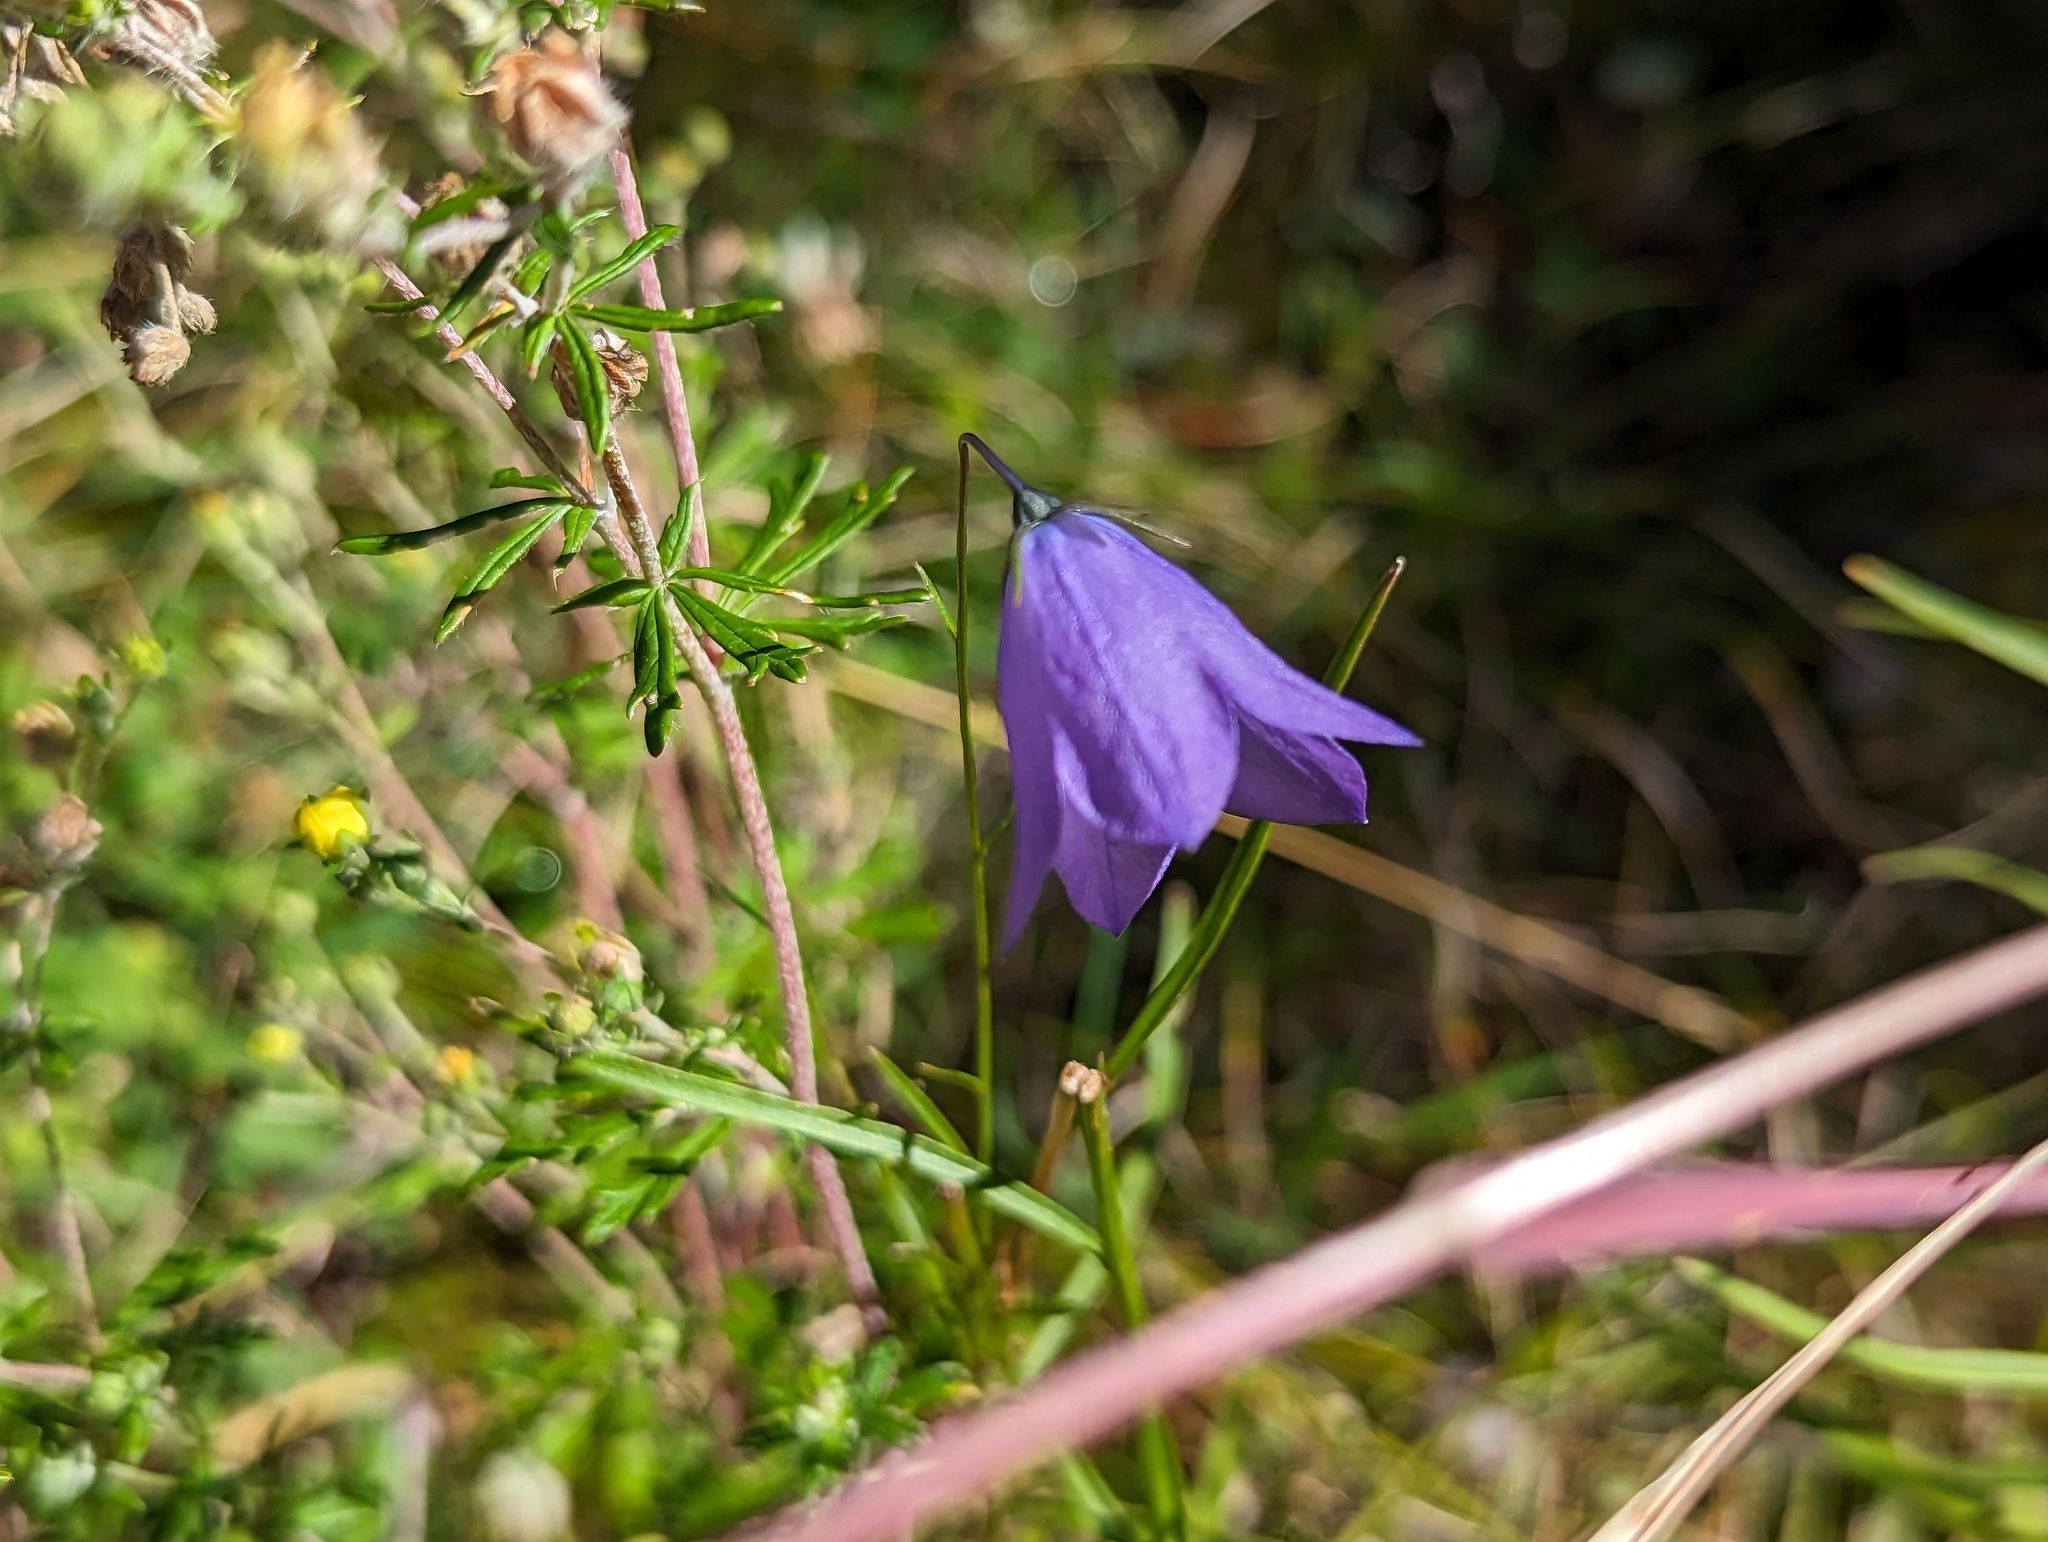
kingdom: Plantae
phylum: Tracheophyta
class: Magnoliopsida
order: Asterales
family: Campanulaceae
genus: Campanula
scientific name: Campanula petiolata
